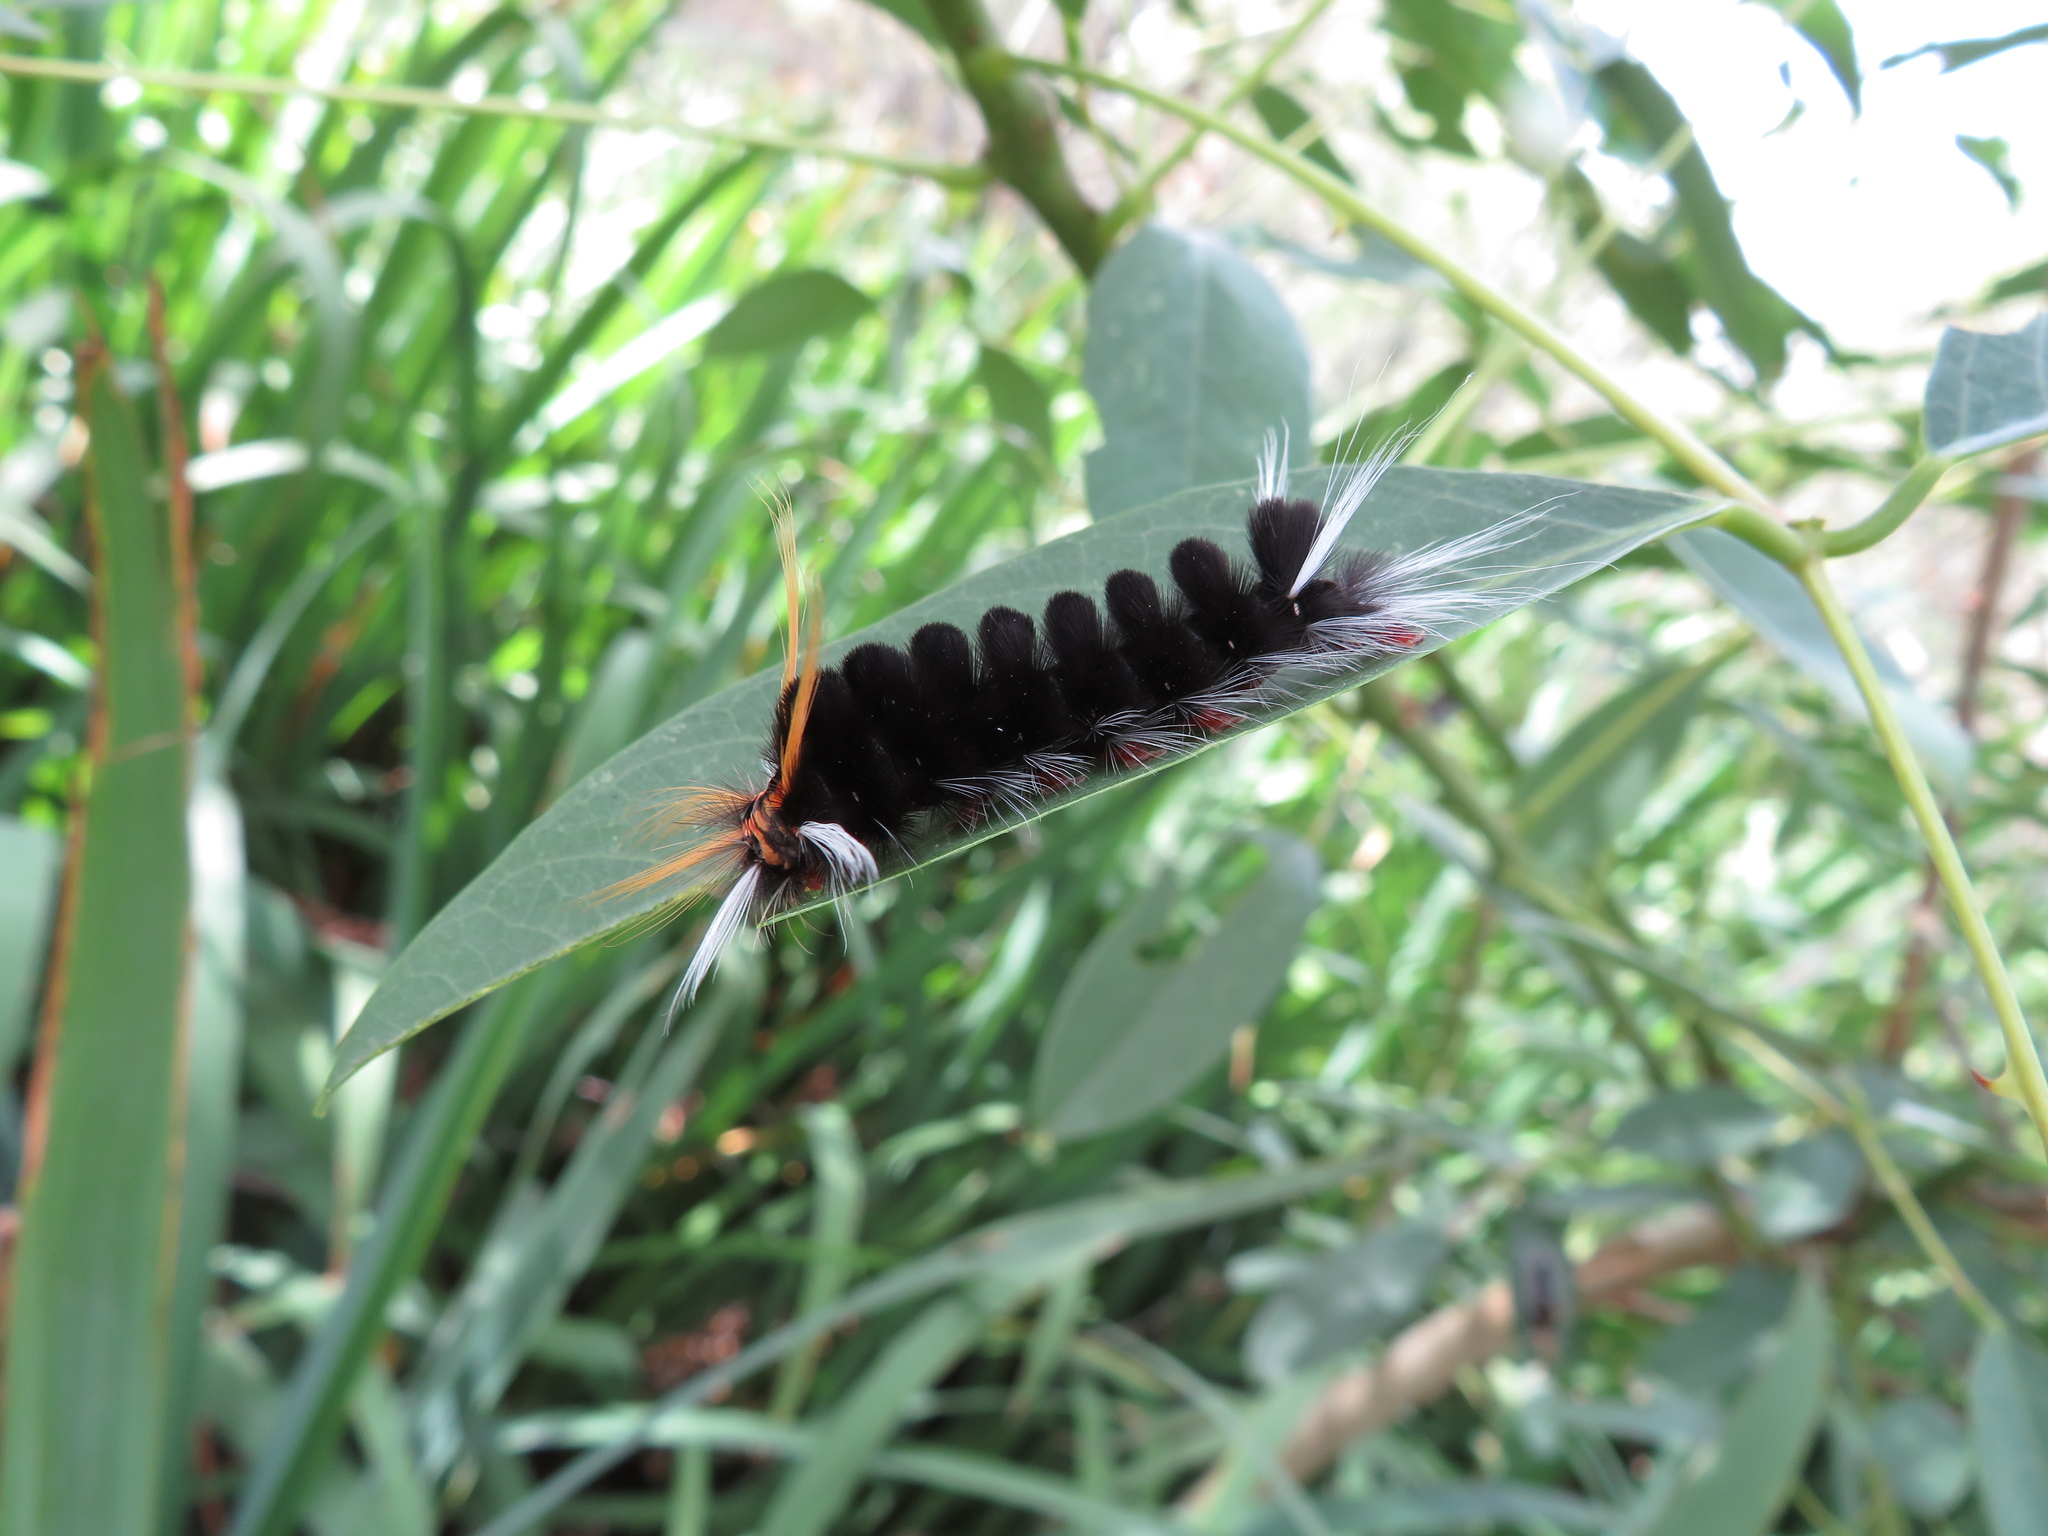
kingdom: Animalia
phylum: Arthropoda
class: Insecta
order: Lepidoptera
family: Erebidae
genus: Halysidota
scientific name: Halysidota ruscheweyhi
